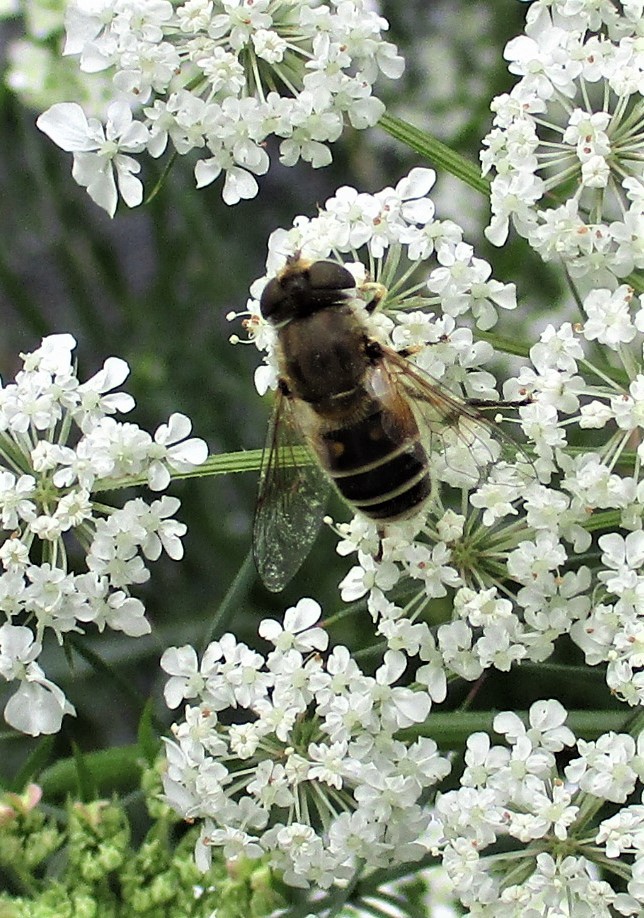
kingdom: Animalia
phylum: Arthropoda
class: Insecta
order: Diptera
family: Syrphidae
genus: Eristalis
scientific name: Eristalis arbustorum
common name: Hover fly
